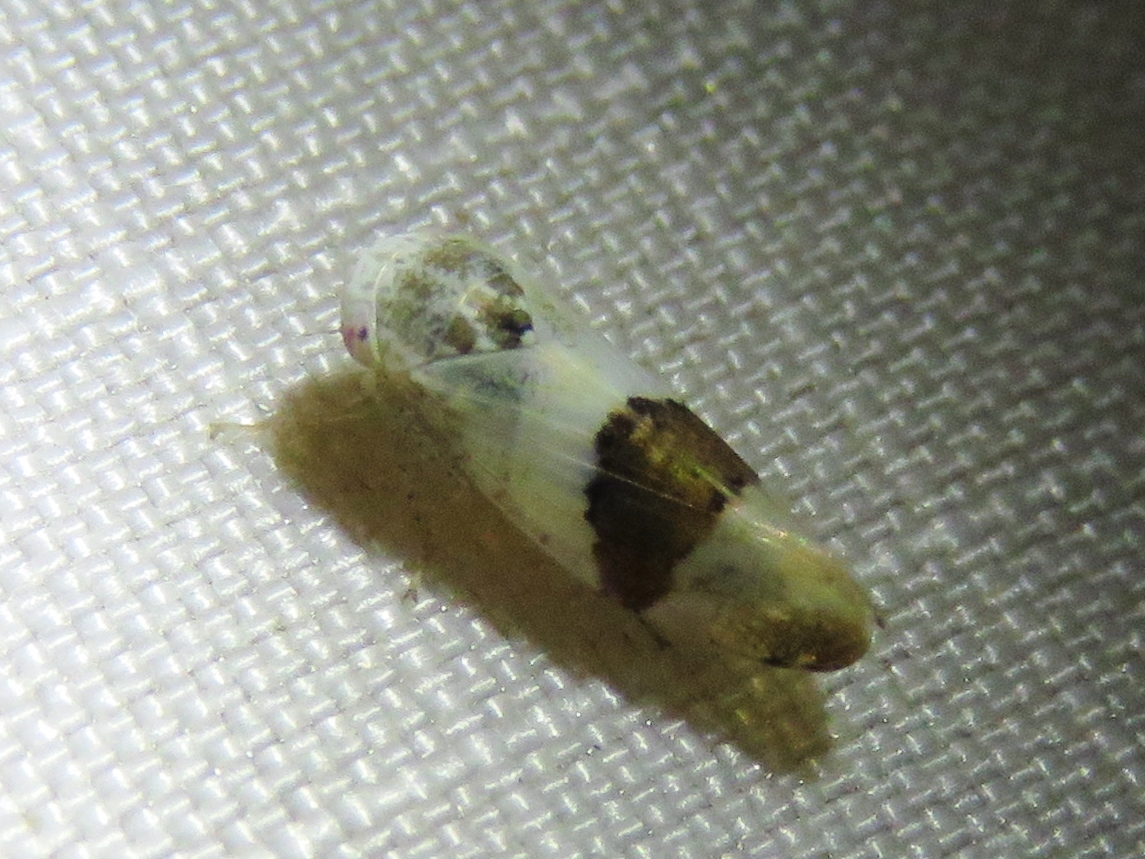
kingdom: Animalia
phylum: Arthropoda
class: Insecta
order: Hemiptera
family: Cicadellidae
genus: Norvellina
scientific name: Norvellina seminuda
